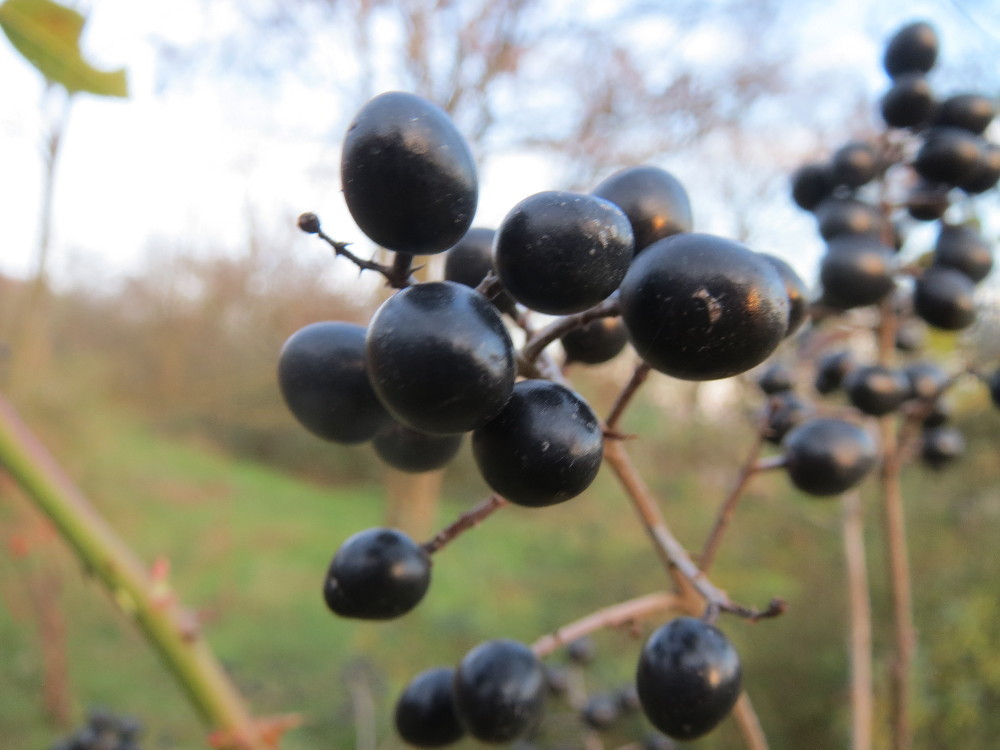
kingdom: Plantae
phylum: Tracheophyta
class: Magnoliopsida
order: Lamiales
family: Oleaceae
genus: Ligustrum
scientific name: Ligustrum vulgare
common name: Wild privet
